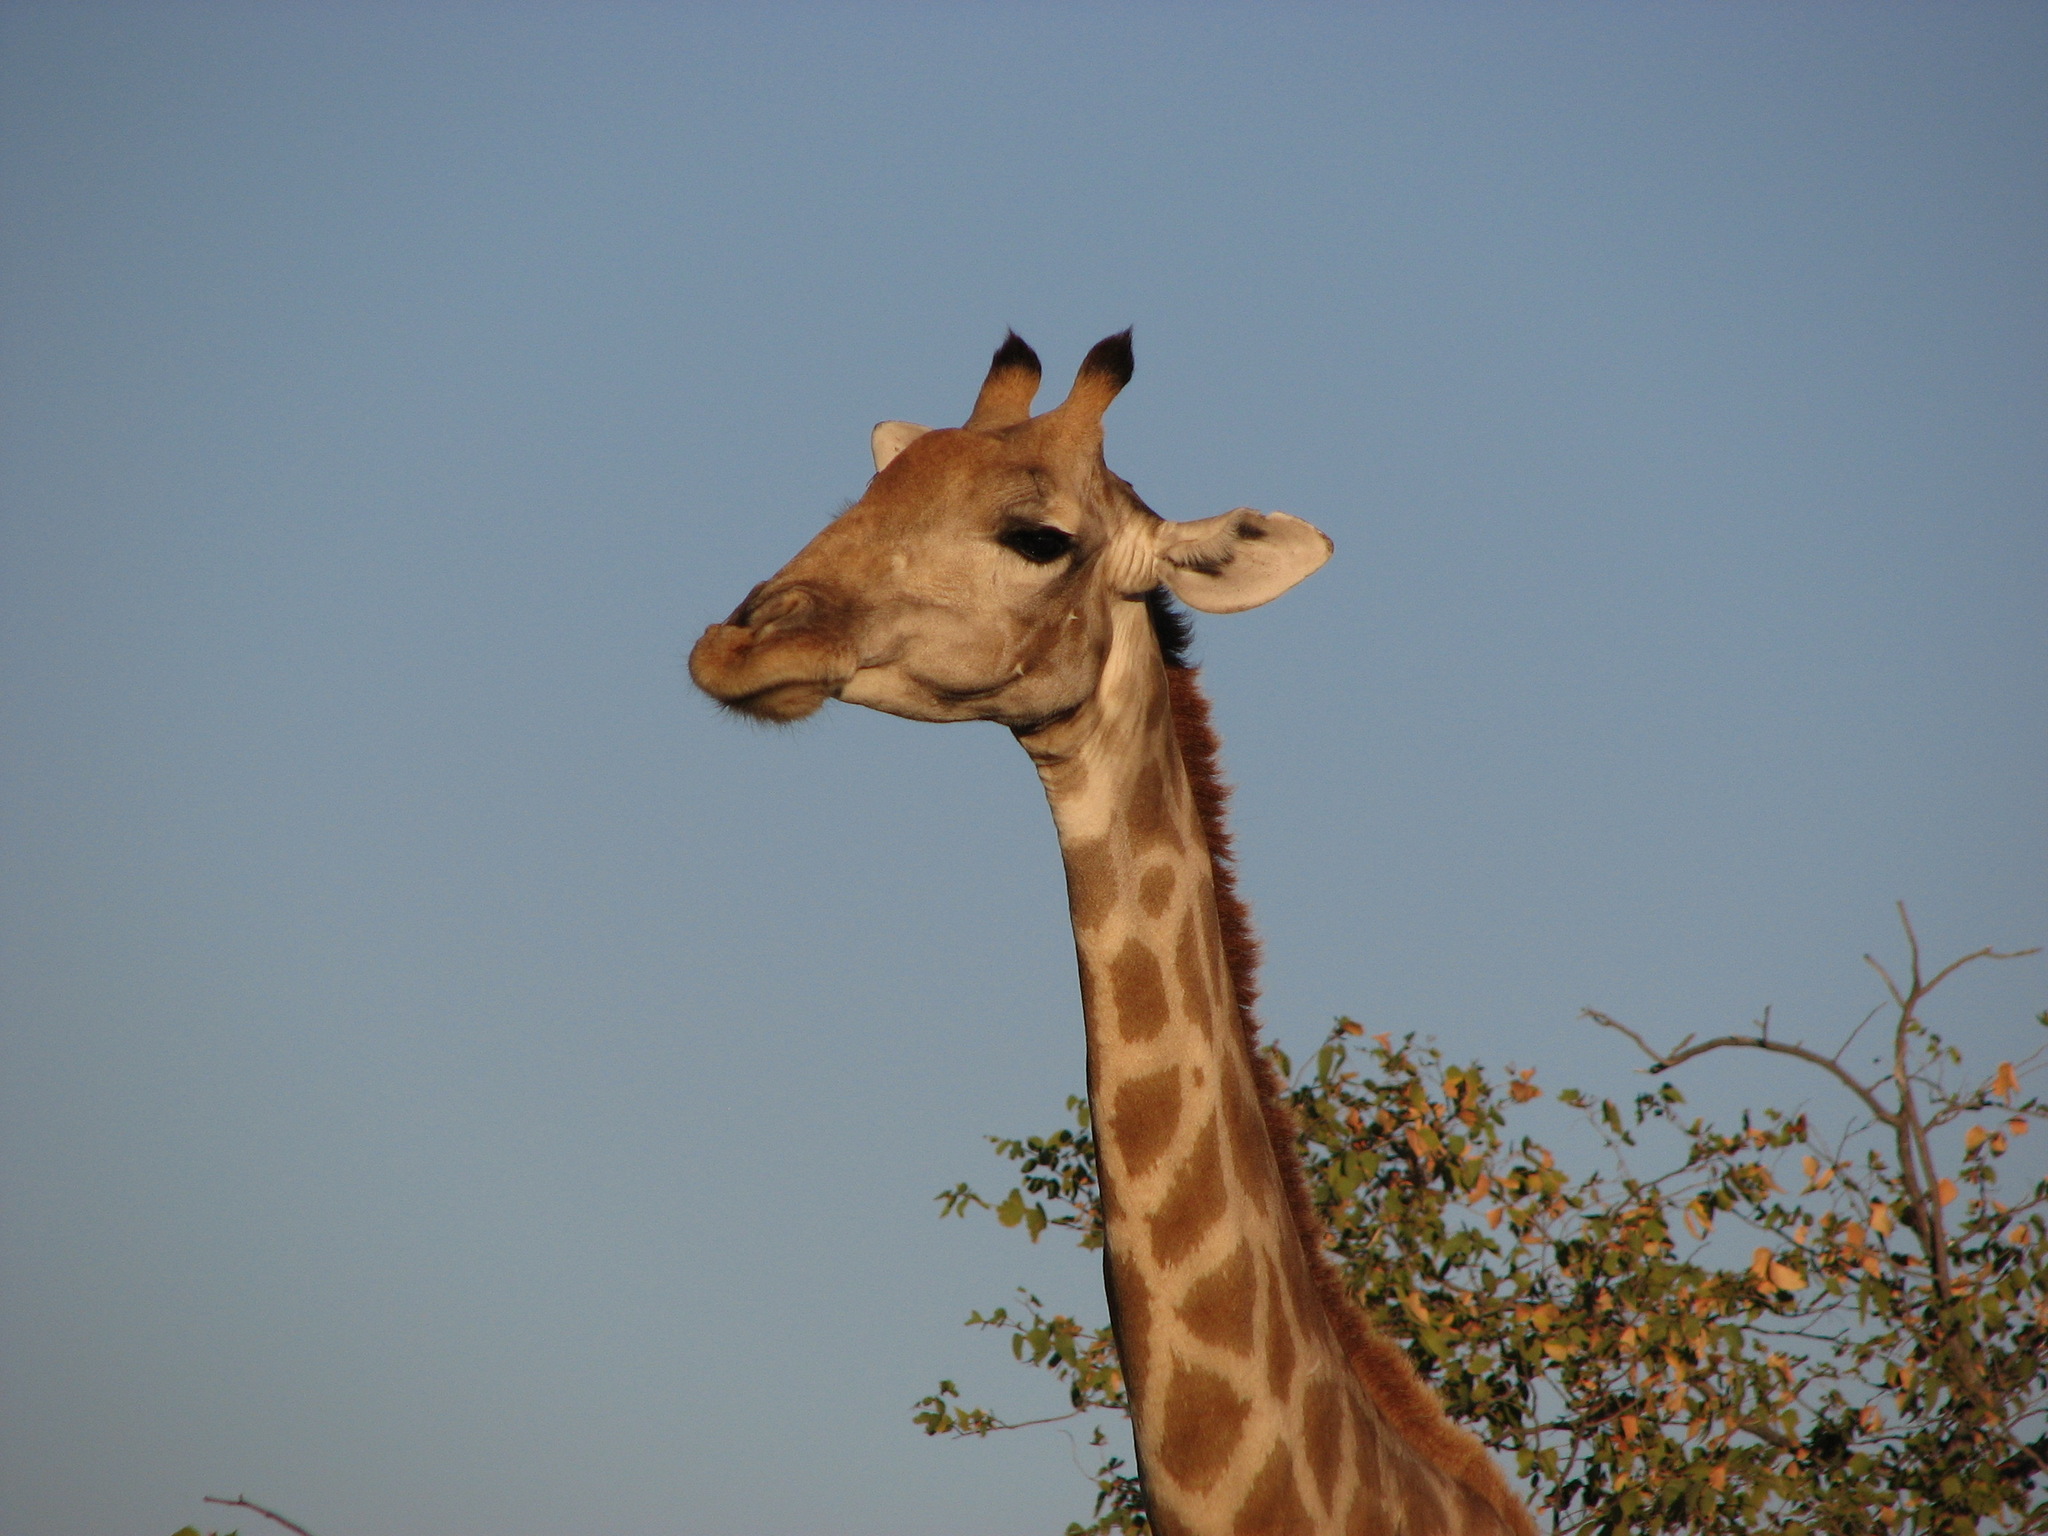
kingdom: Animalia
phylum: Chordata
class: Mammalia
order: Artiodactyla
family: Giraffidae
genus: Giraffa
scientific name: Giraffa giraffa
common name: Southern giraffe
